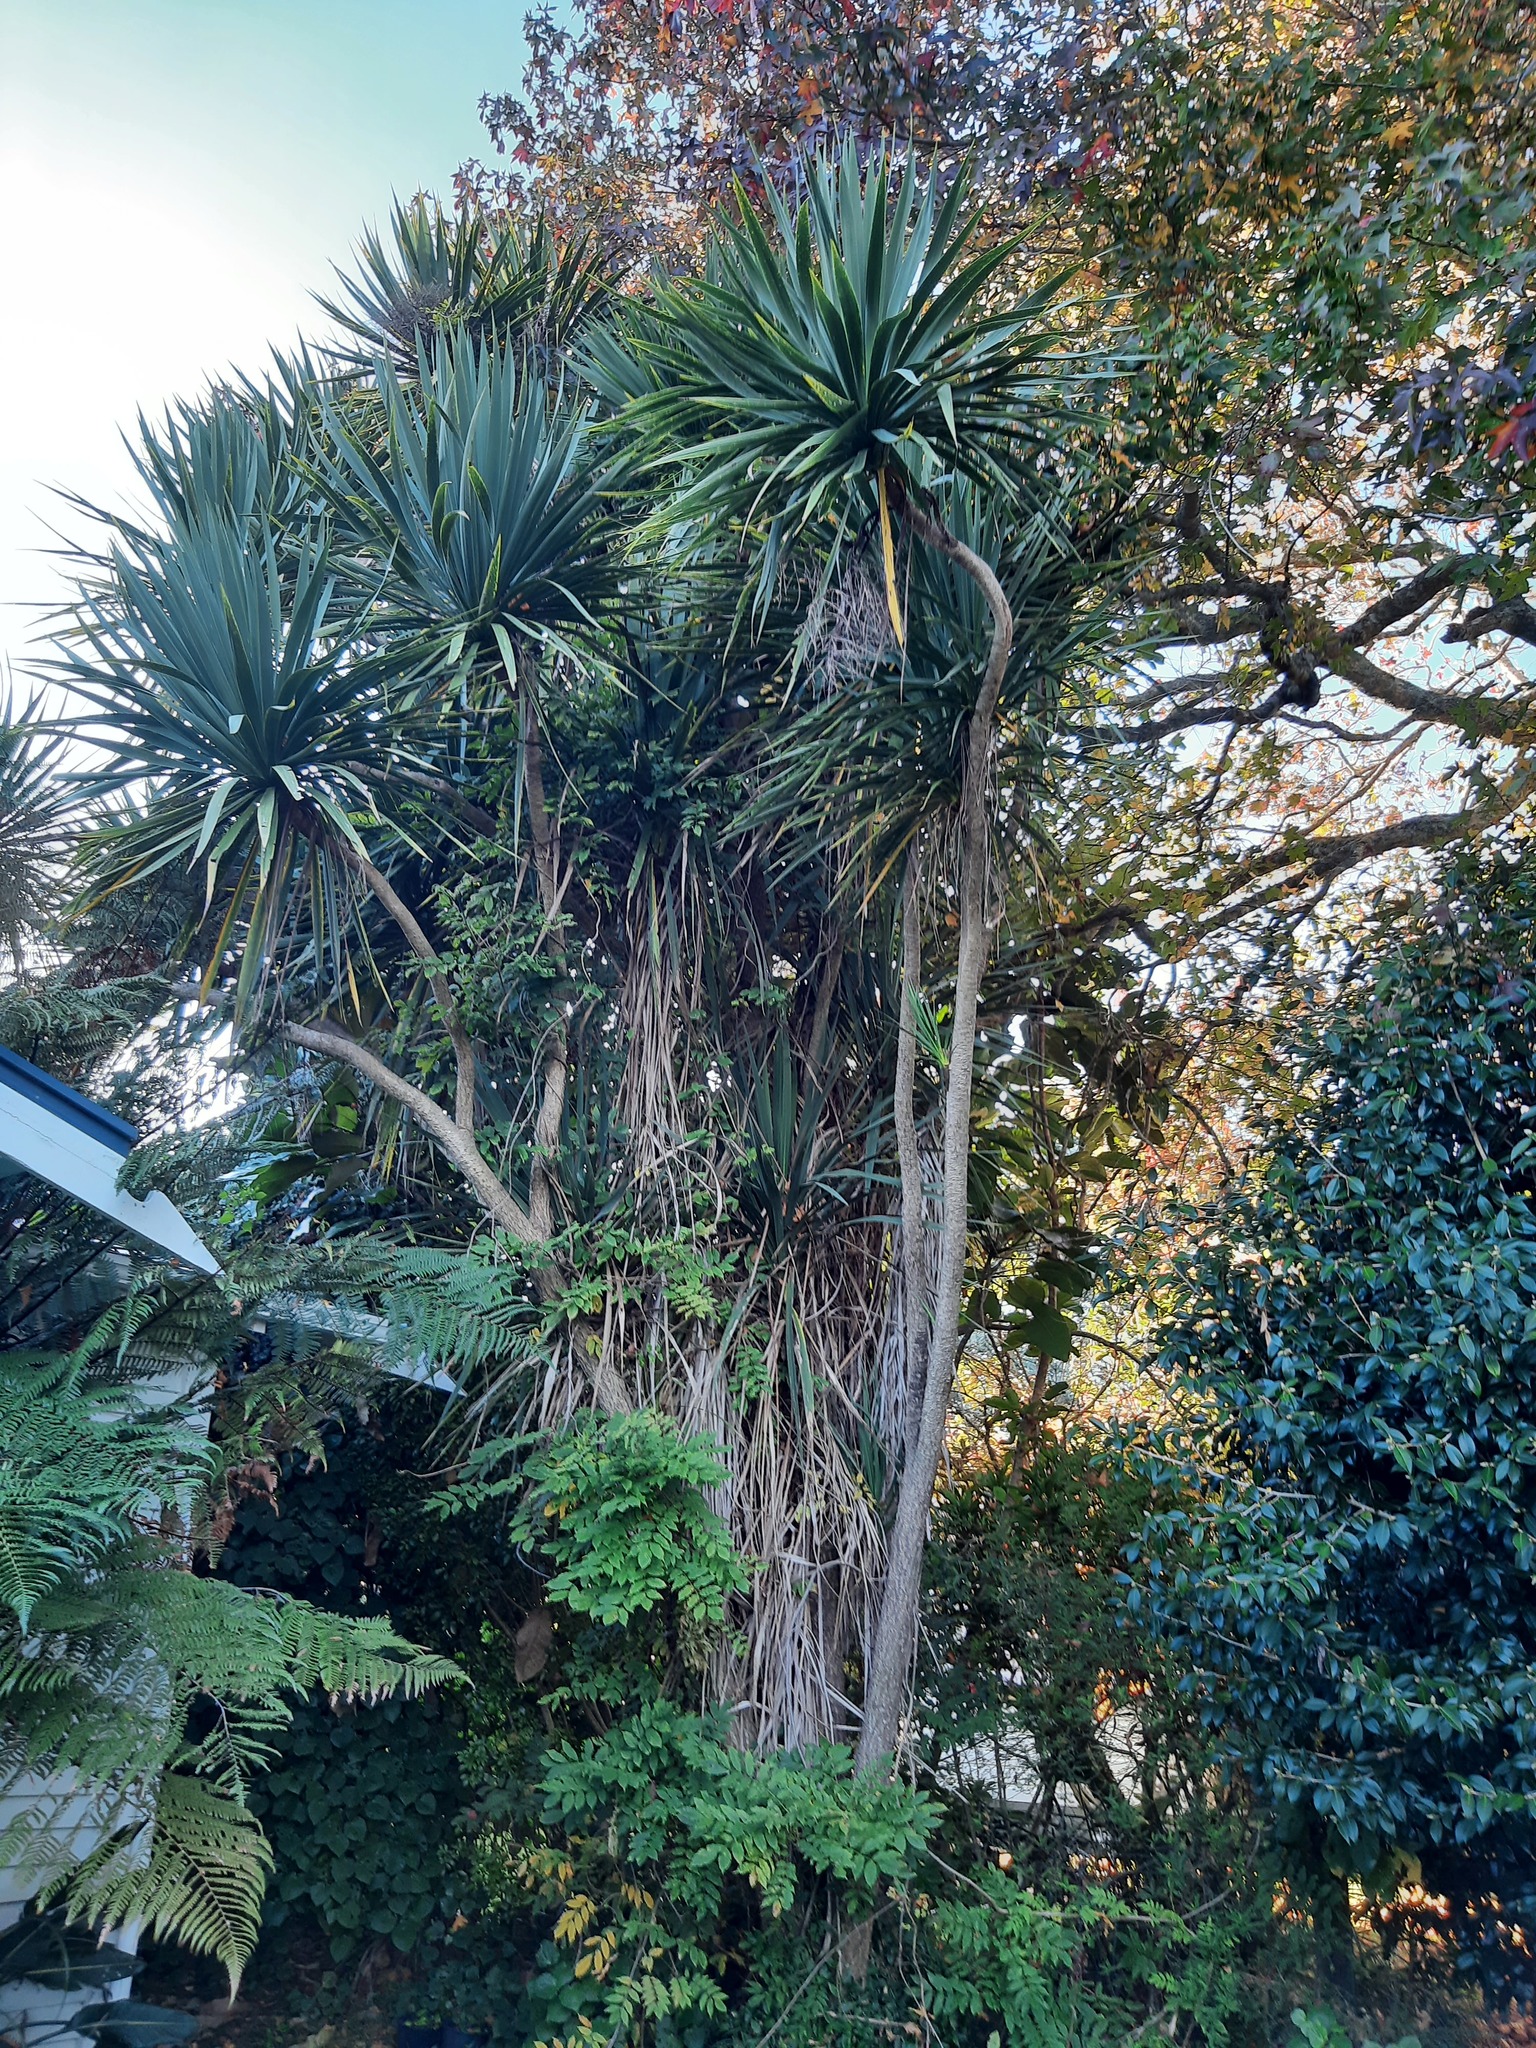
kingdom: Plantae
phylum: Tracheophyta
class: Liliopsida
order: Asparagales
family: Asparagaceae
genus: Cordyline
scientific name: Cordyline australis
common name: Cabbage-palm
